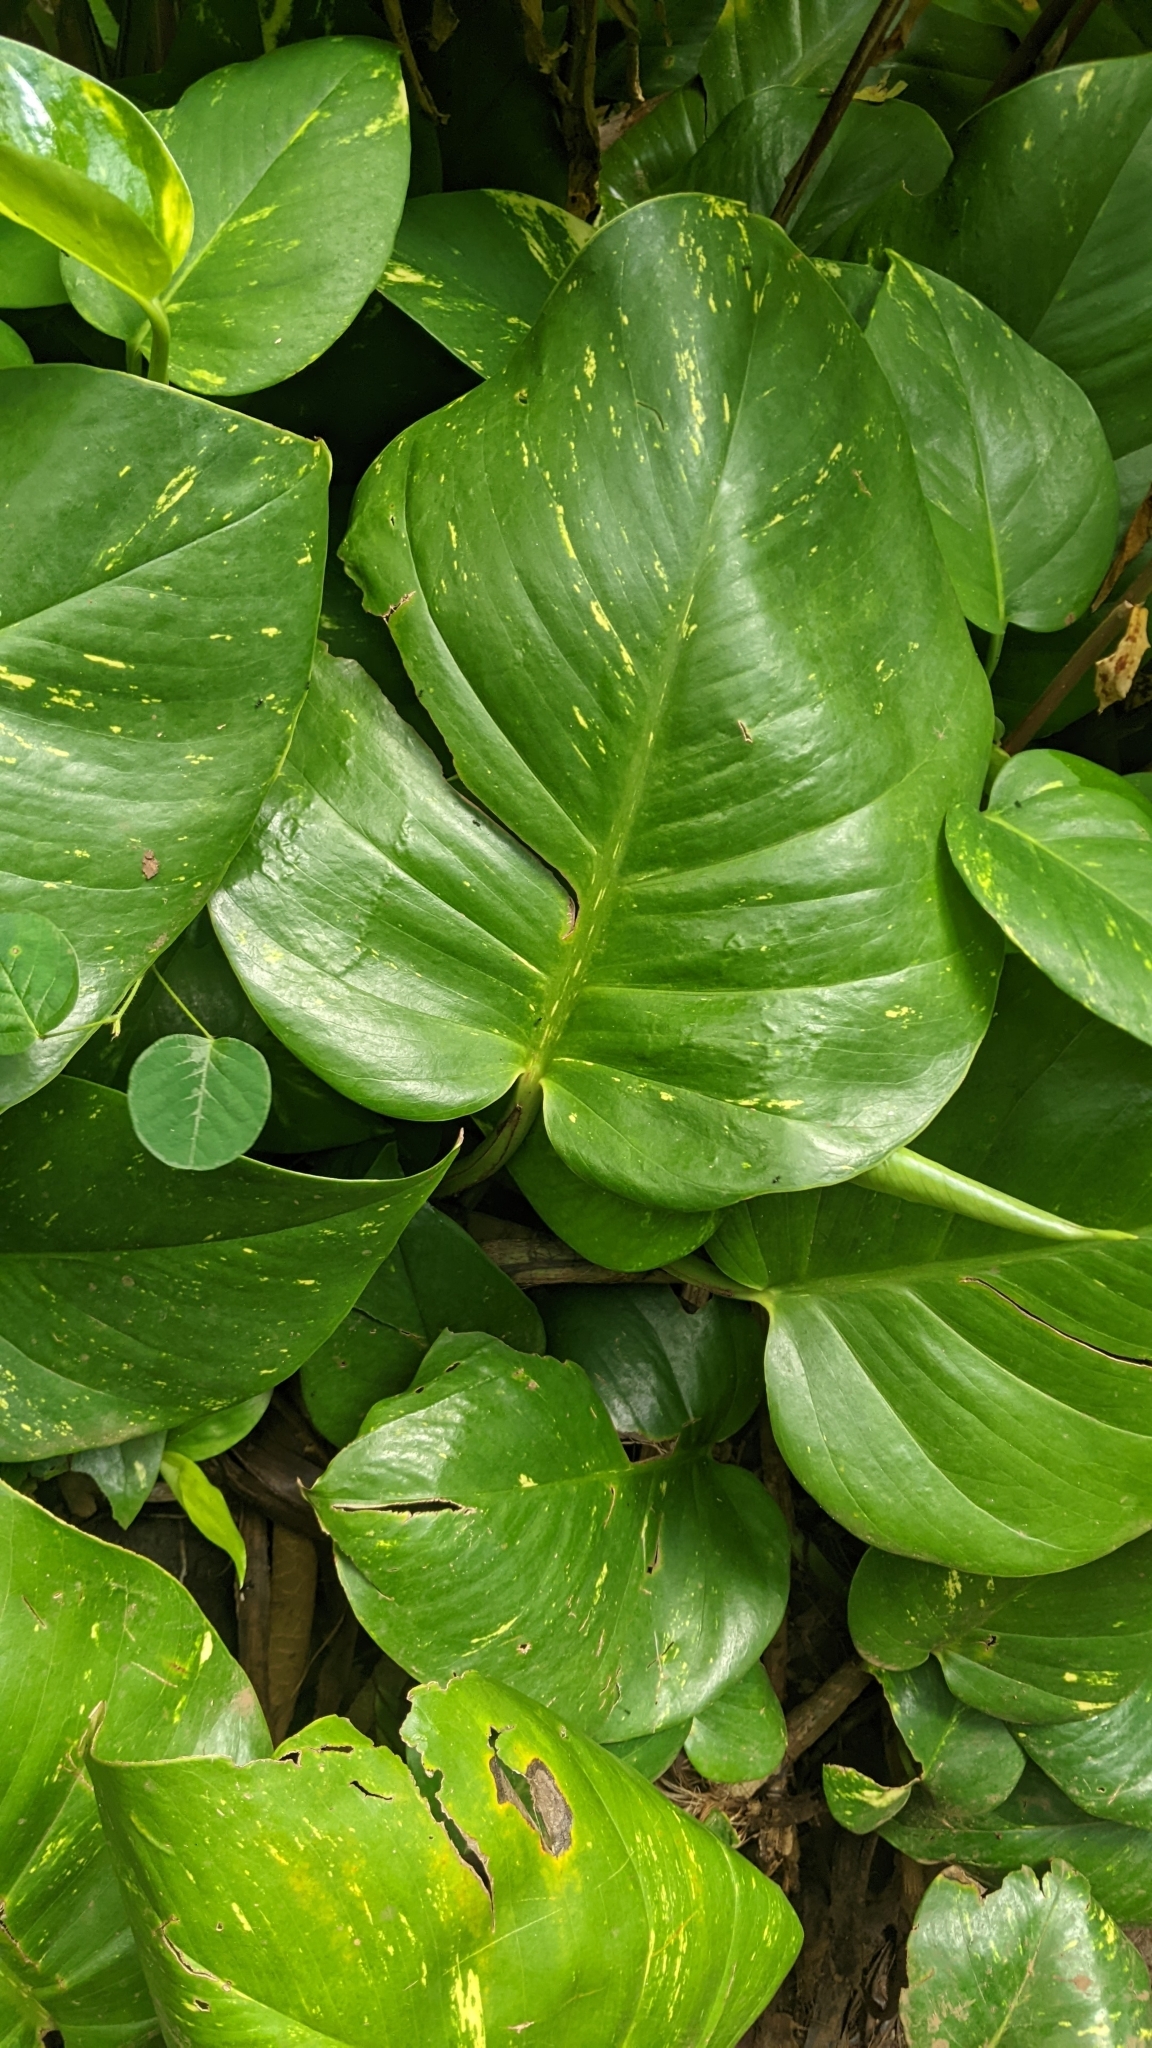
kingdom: Plantae
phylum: Tracheophyta
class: Liliopsida
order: Alismatales
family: Araceae
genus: Epipremnum
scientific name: Epipremnum aureum
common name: Golden hunter's-robe
